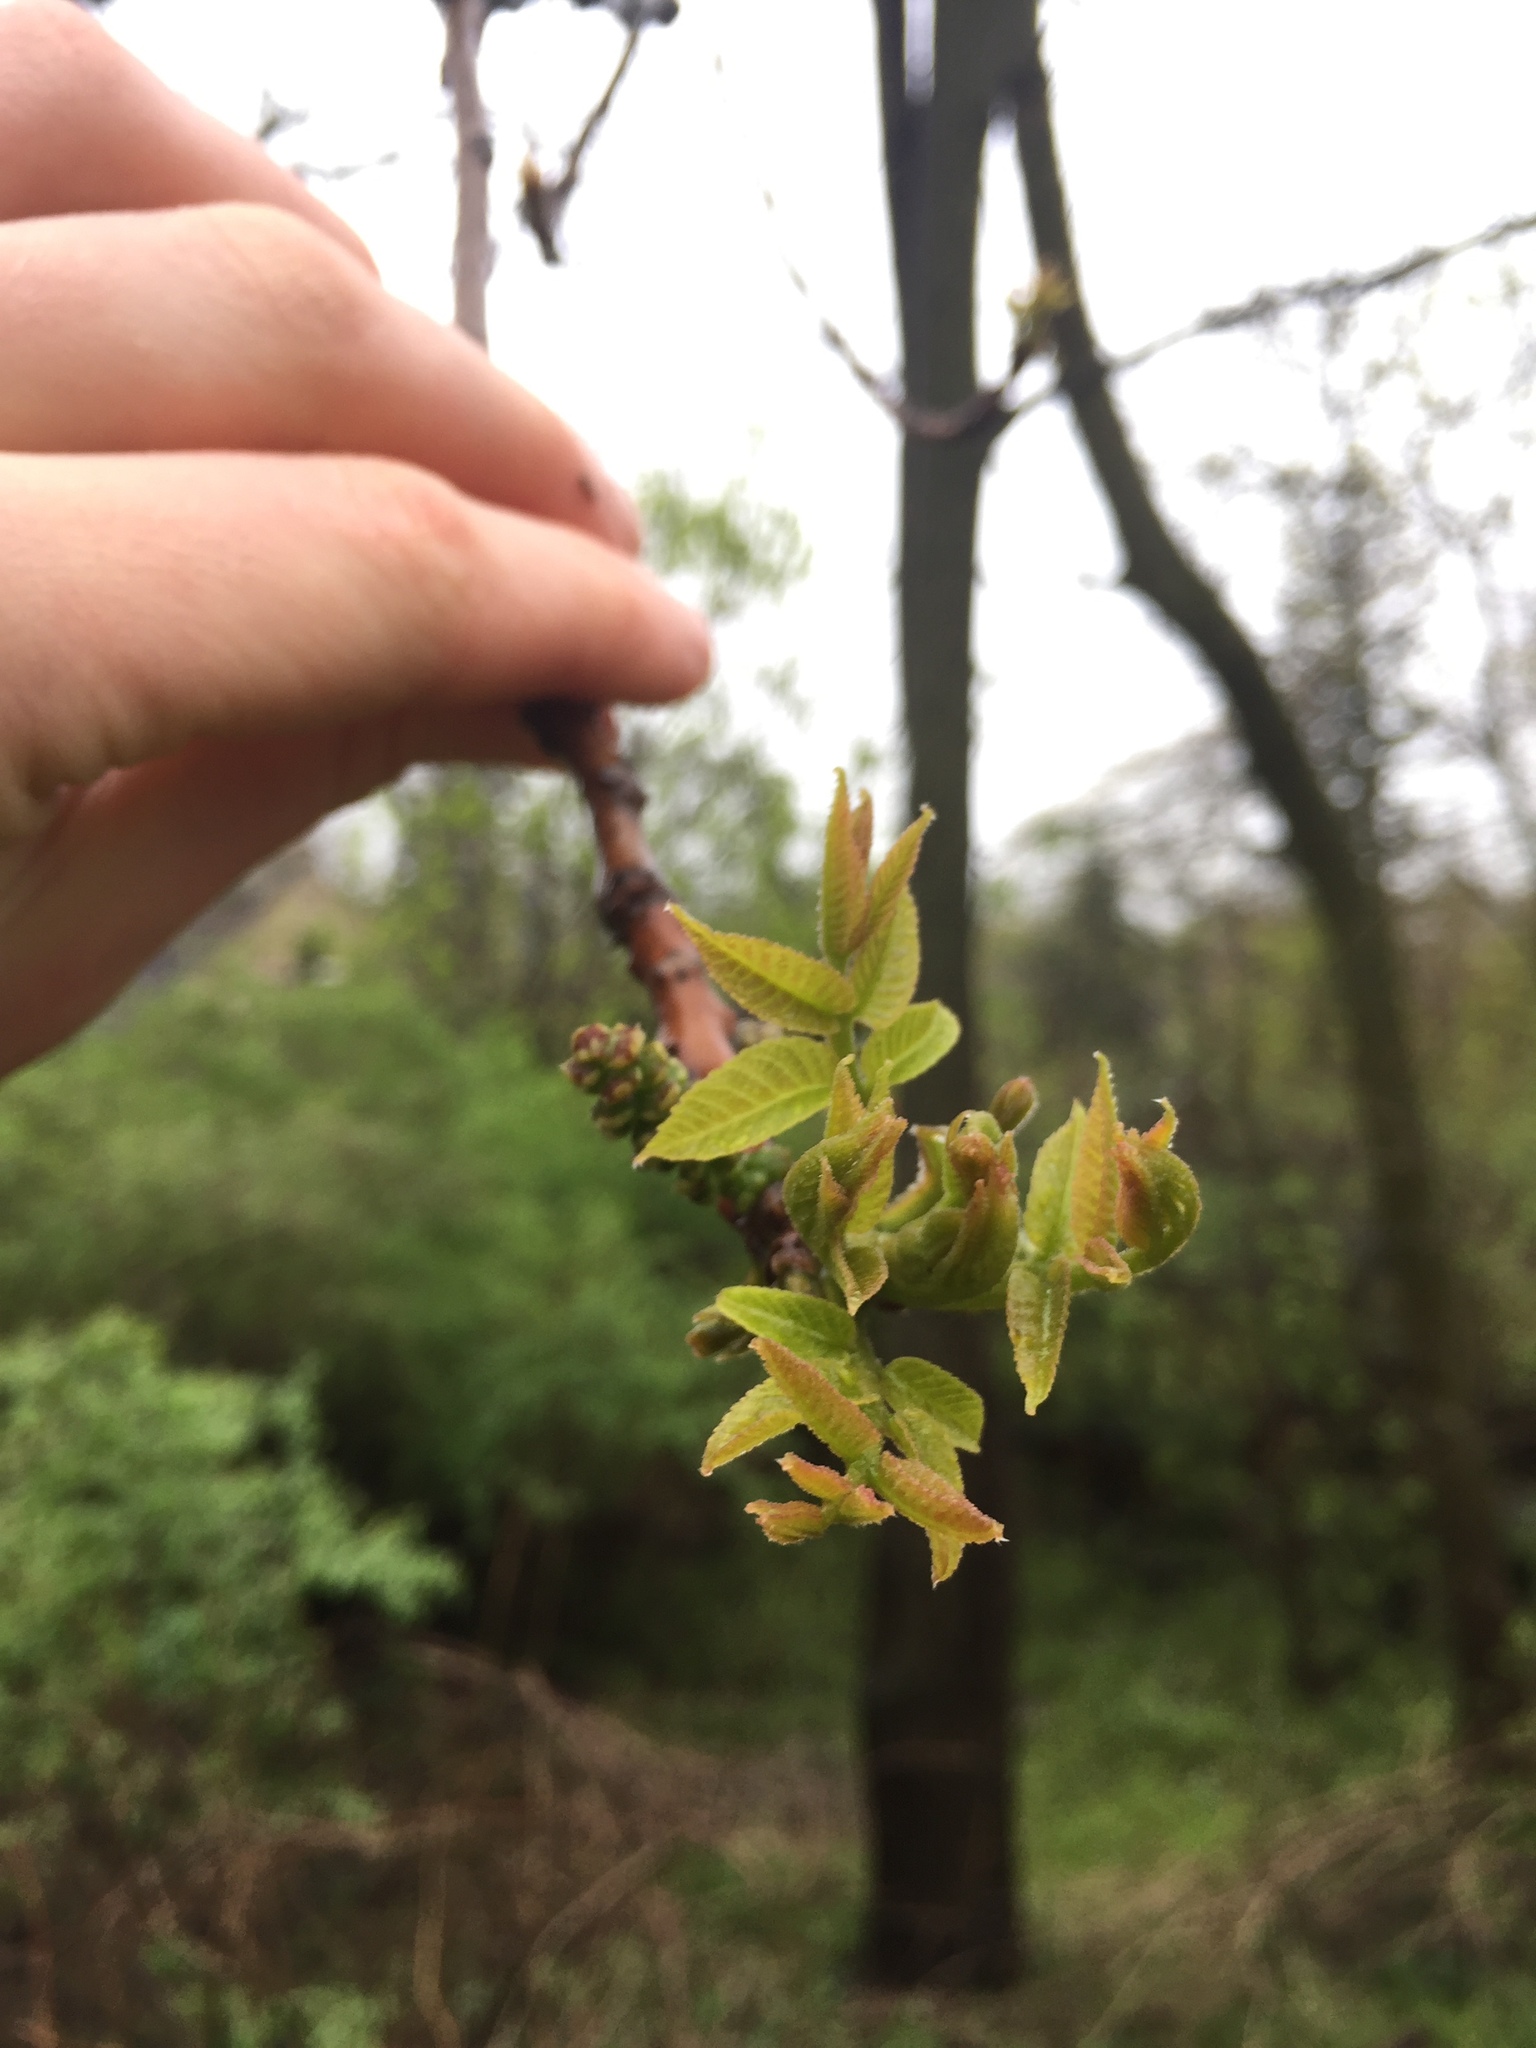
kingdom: Plantae
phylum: Tracheophyta
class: Magnoliopsida
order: Fagales
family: Juglandaceae
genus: Juglans
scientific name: Juglans nigra
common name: Black walnut
